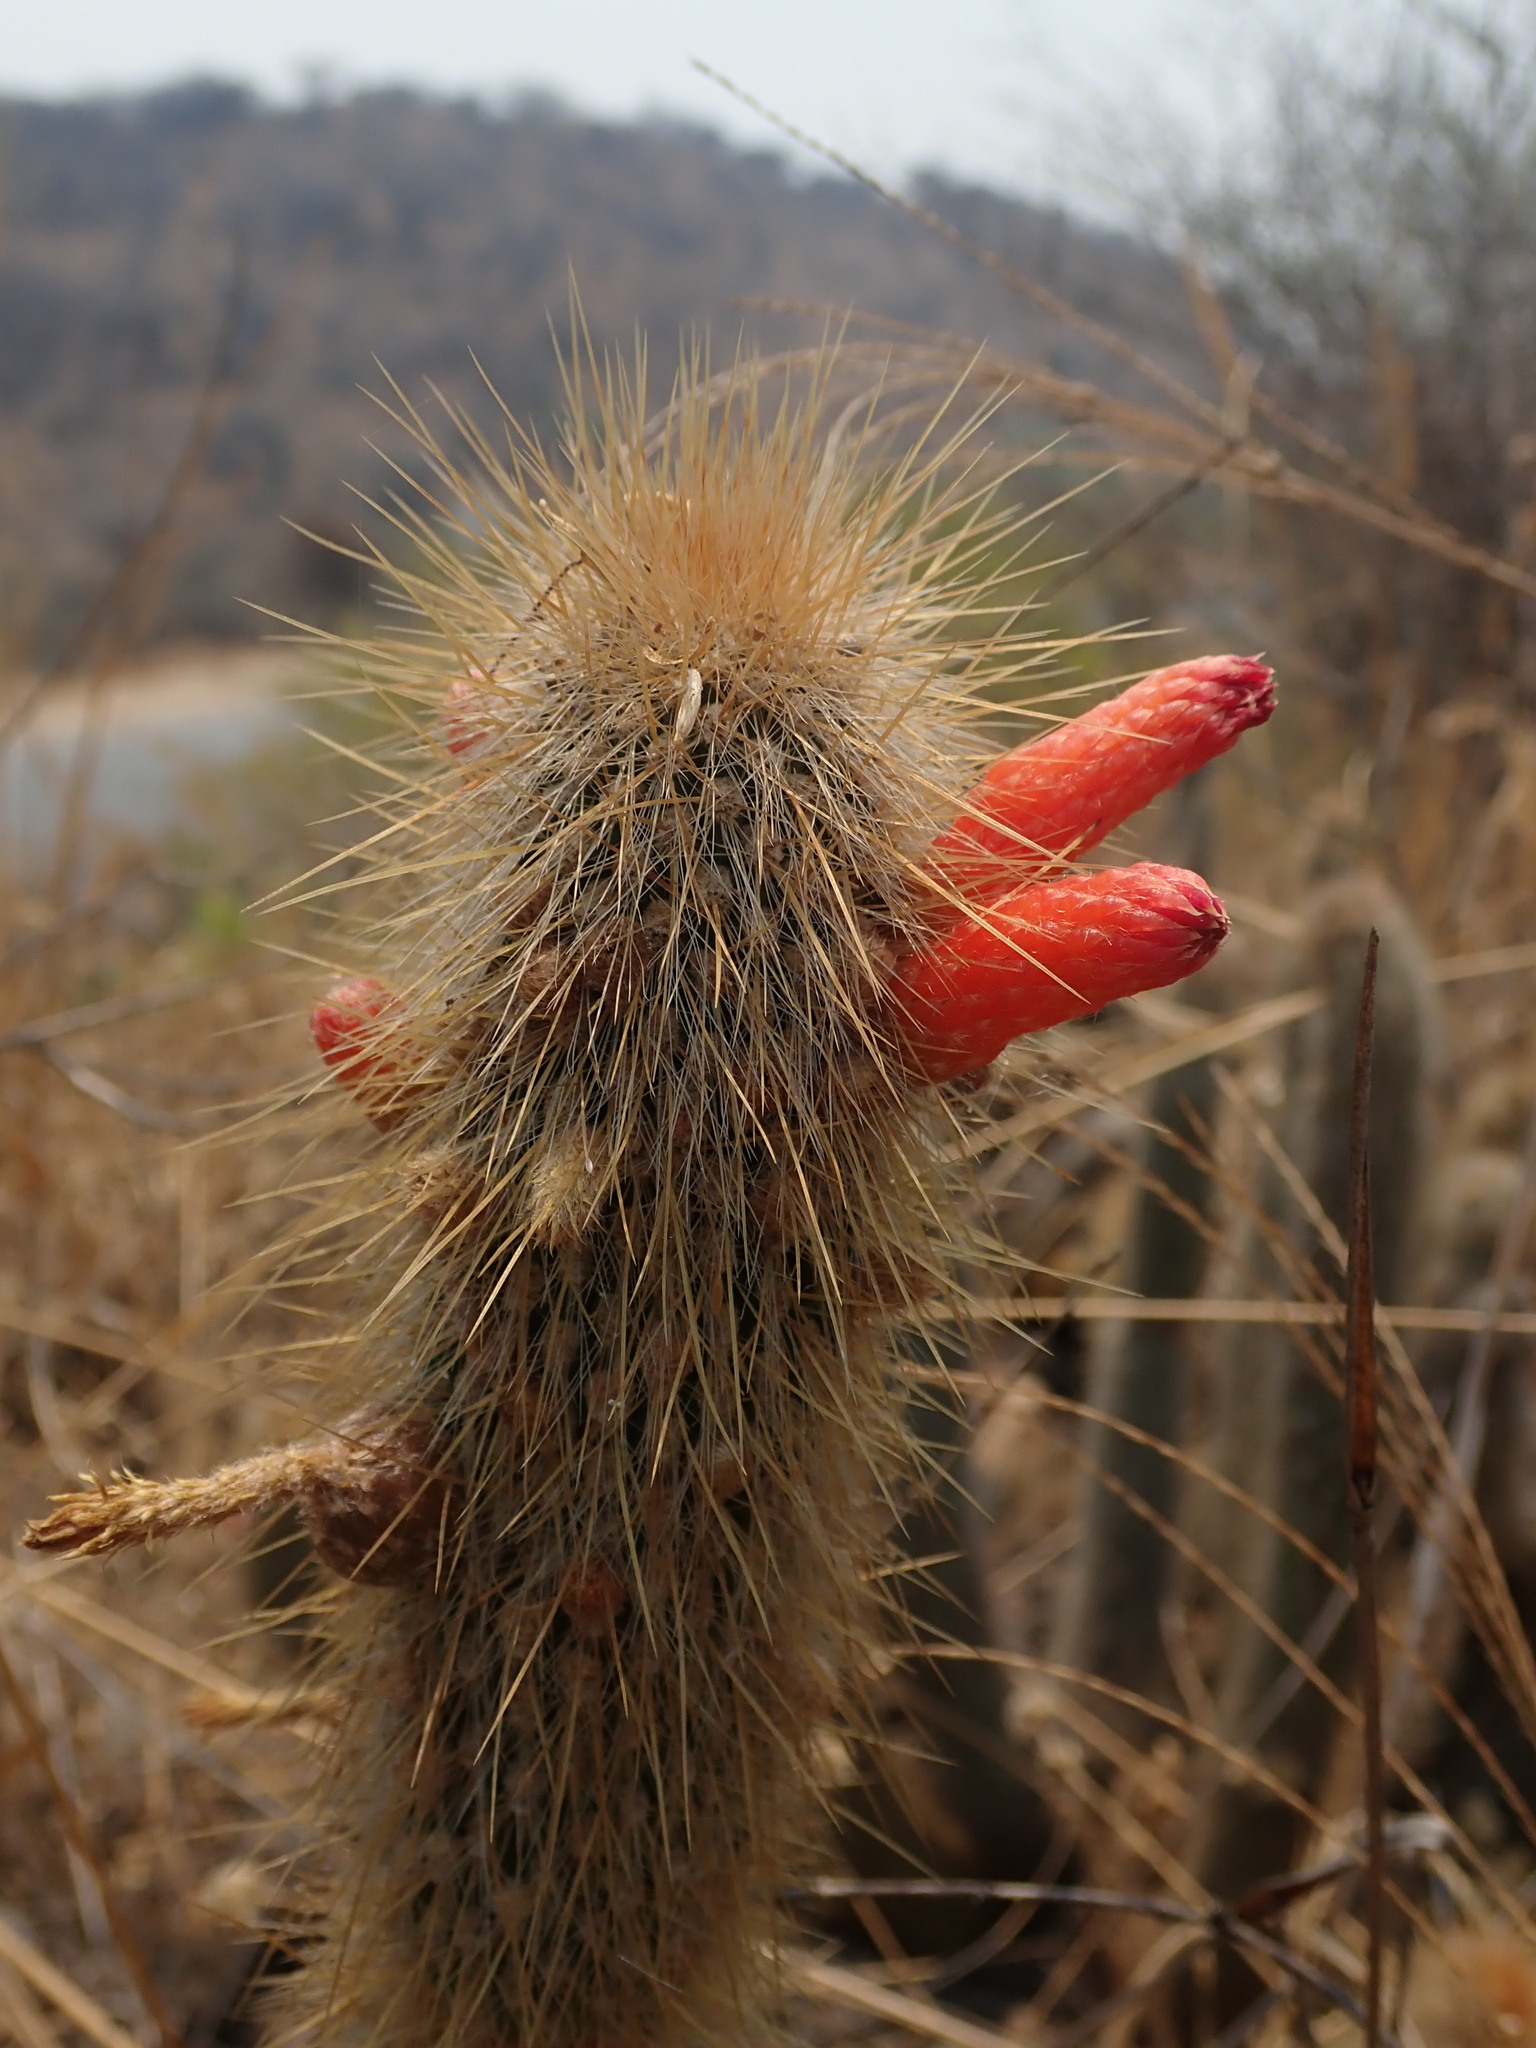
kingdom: Plantae
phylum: Tracheophyta
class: Magnoliopsida
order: Caryophyllales
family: Cactaceae
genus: Cleistocactus
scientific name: Cleistocactus hyalacanthus
